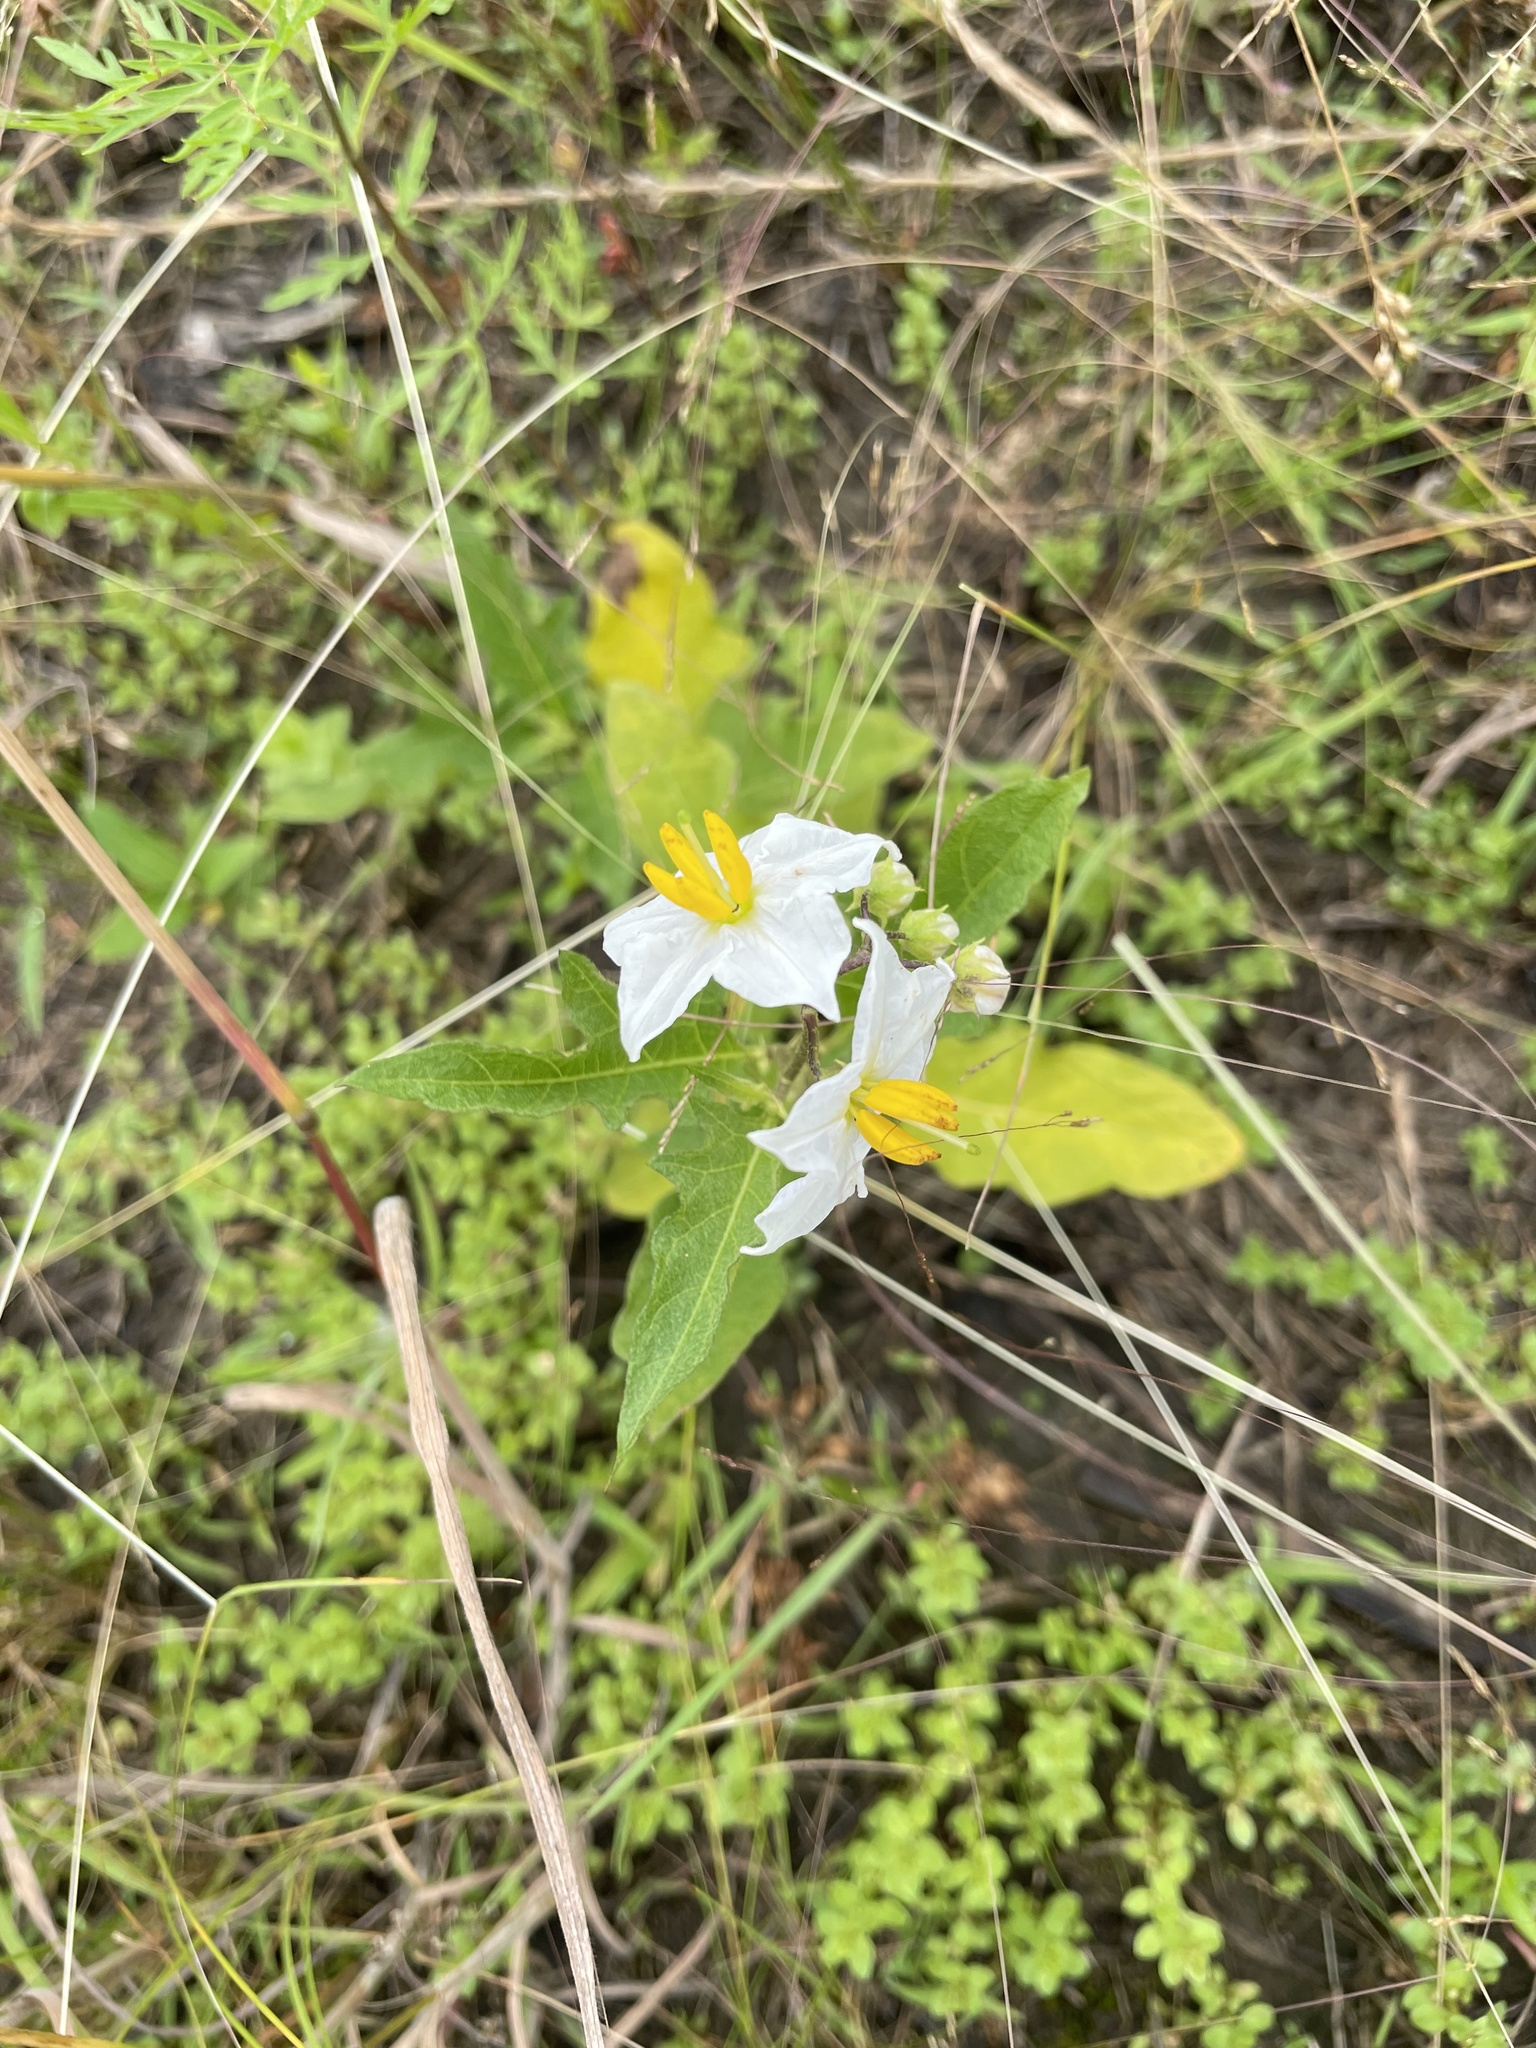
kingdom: Plantae
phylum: Tracheophyta
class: Magnoliopsida
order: Solanales
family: Solanaceae
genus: Solanum
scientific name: Solanum carolinense
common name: Horse-nettle
